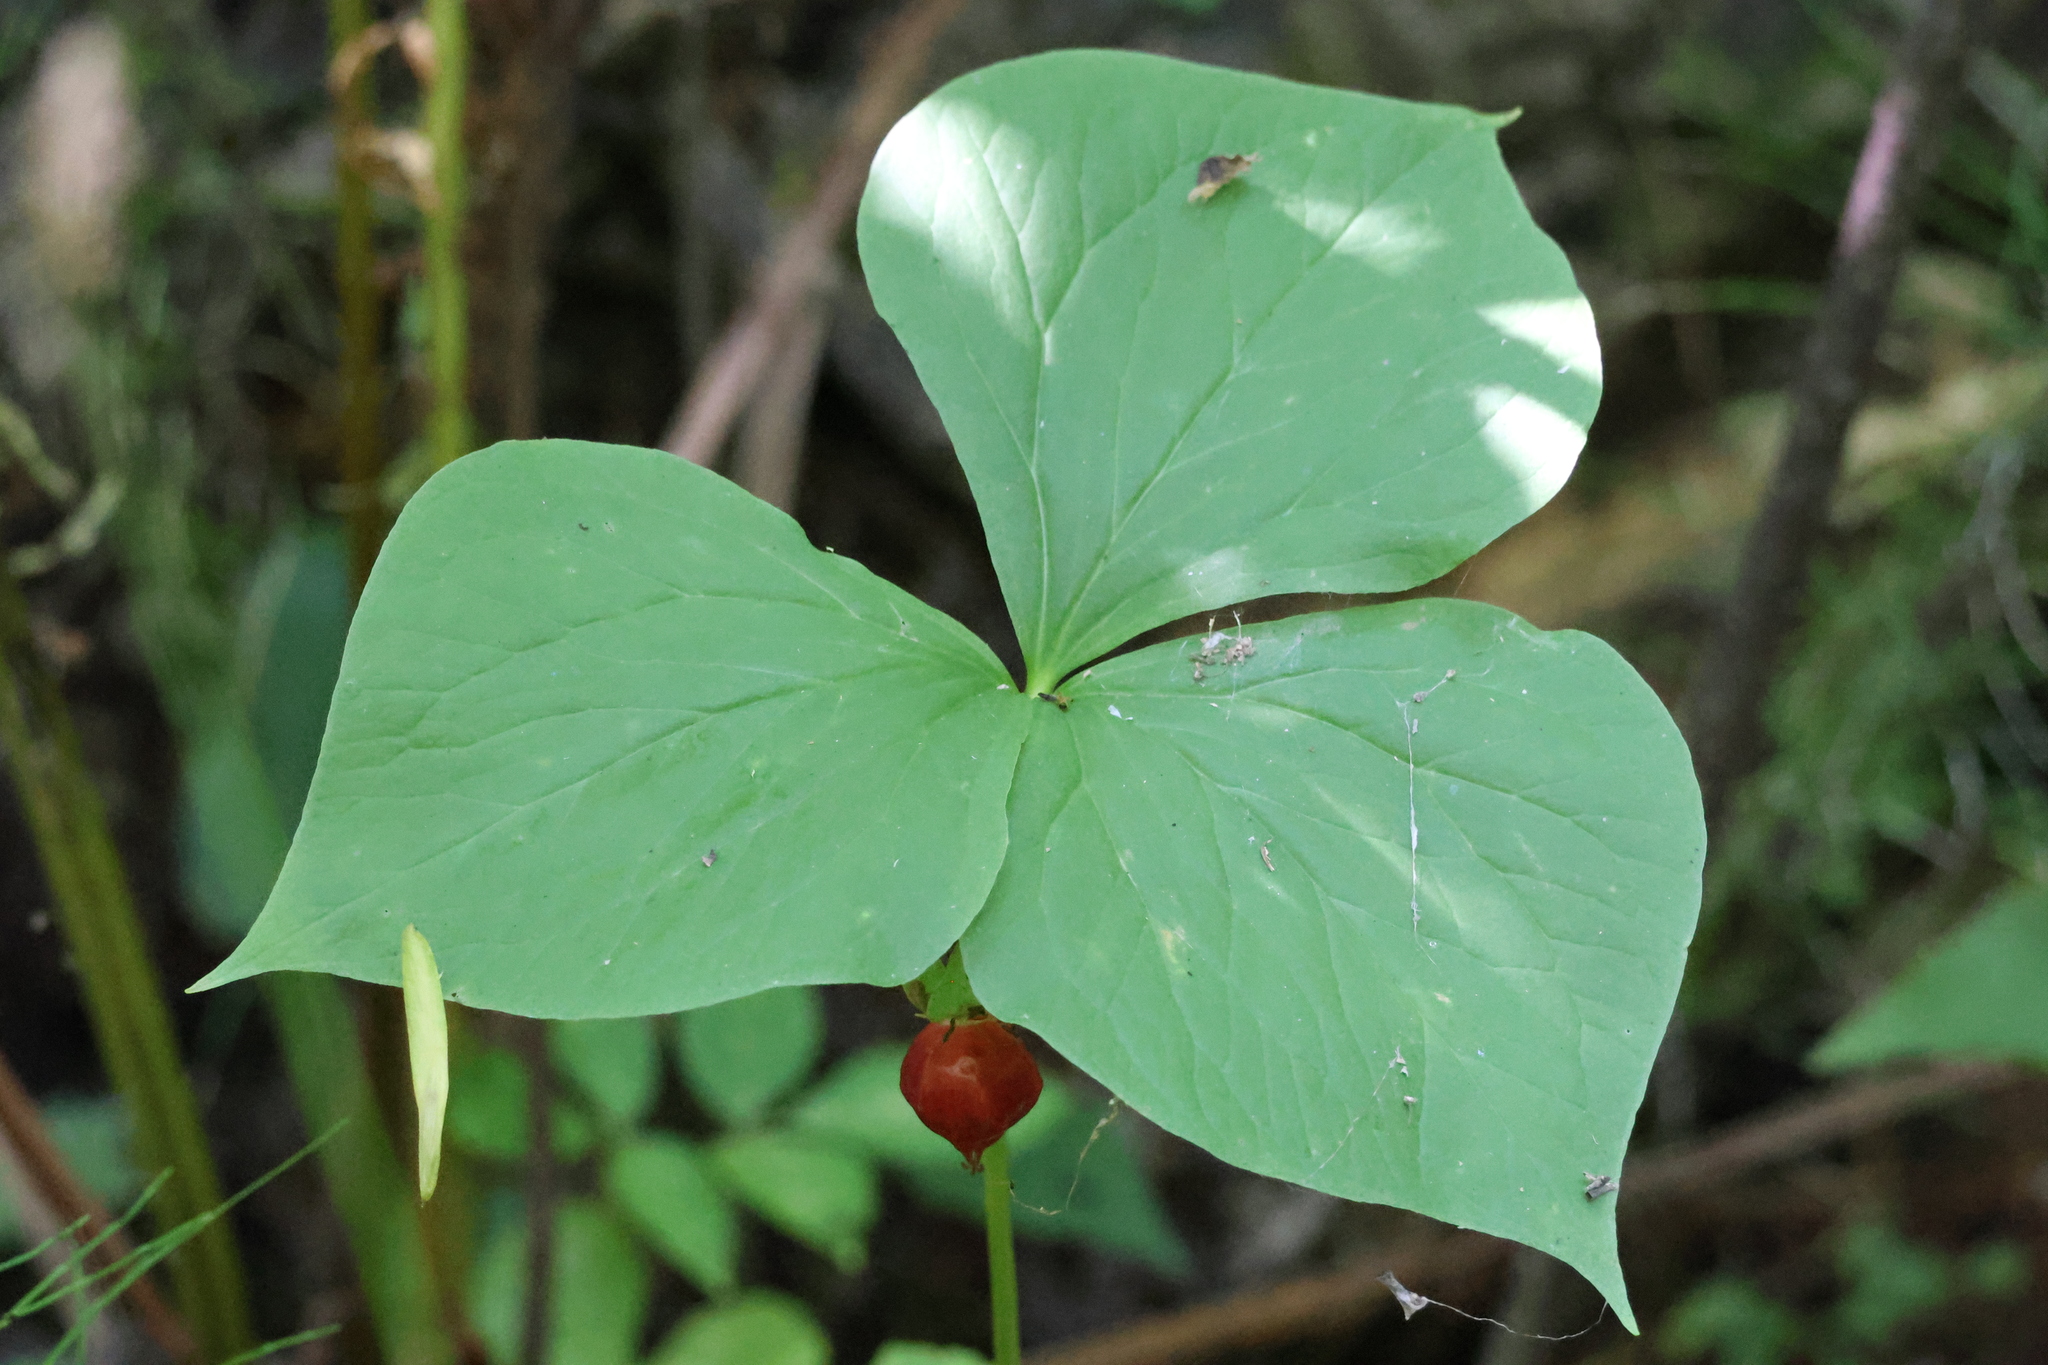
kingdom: Plantae
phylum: Tracheophyta
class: Liliopsida
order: Liliales
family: Melanthiaceae
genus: Trillium
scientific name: Trillium cernuum
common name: Nodding trillium
